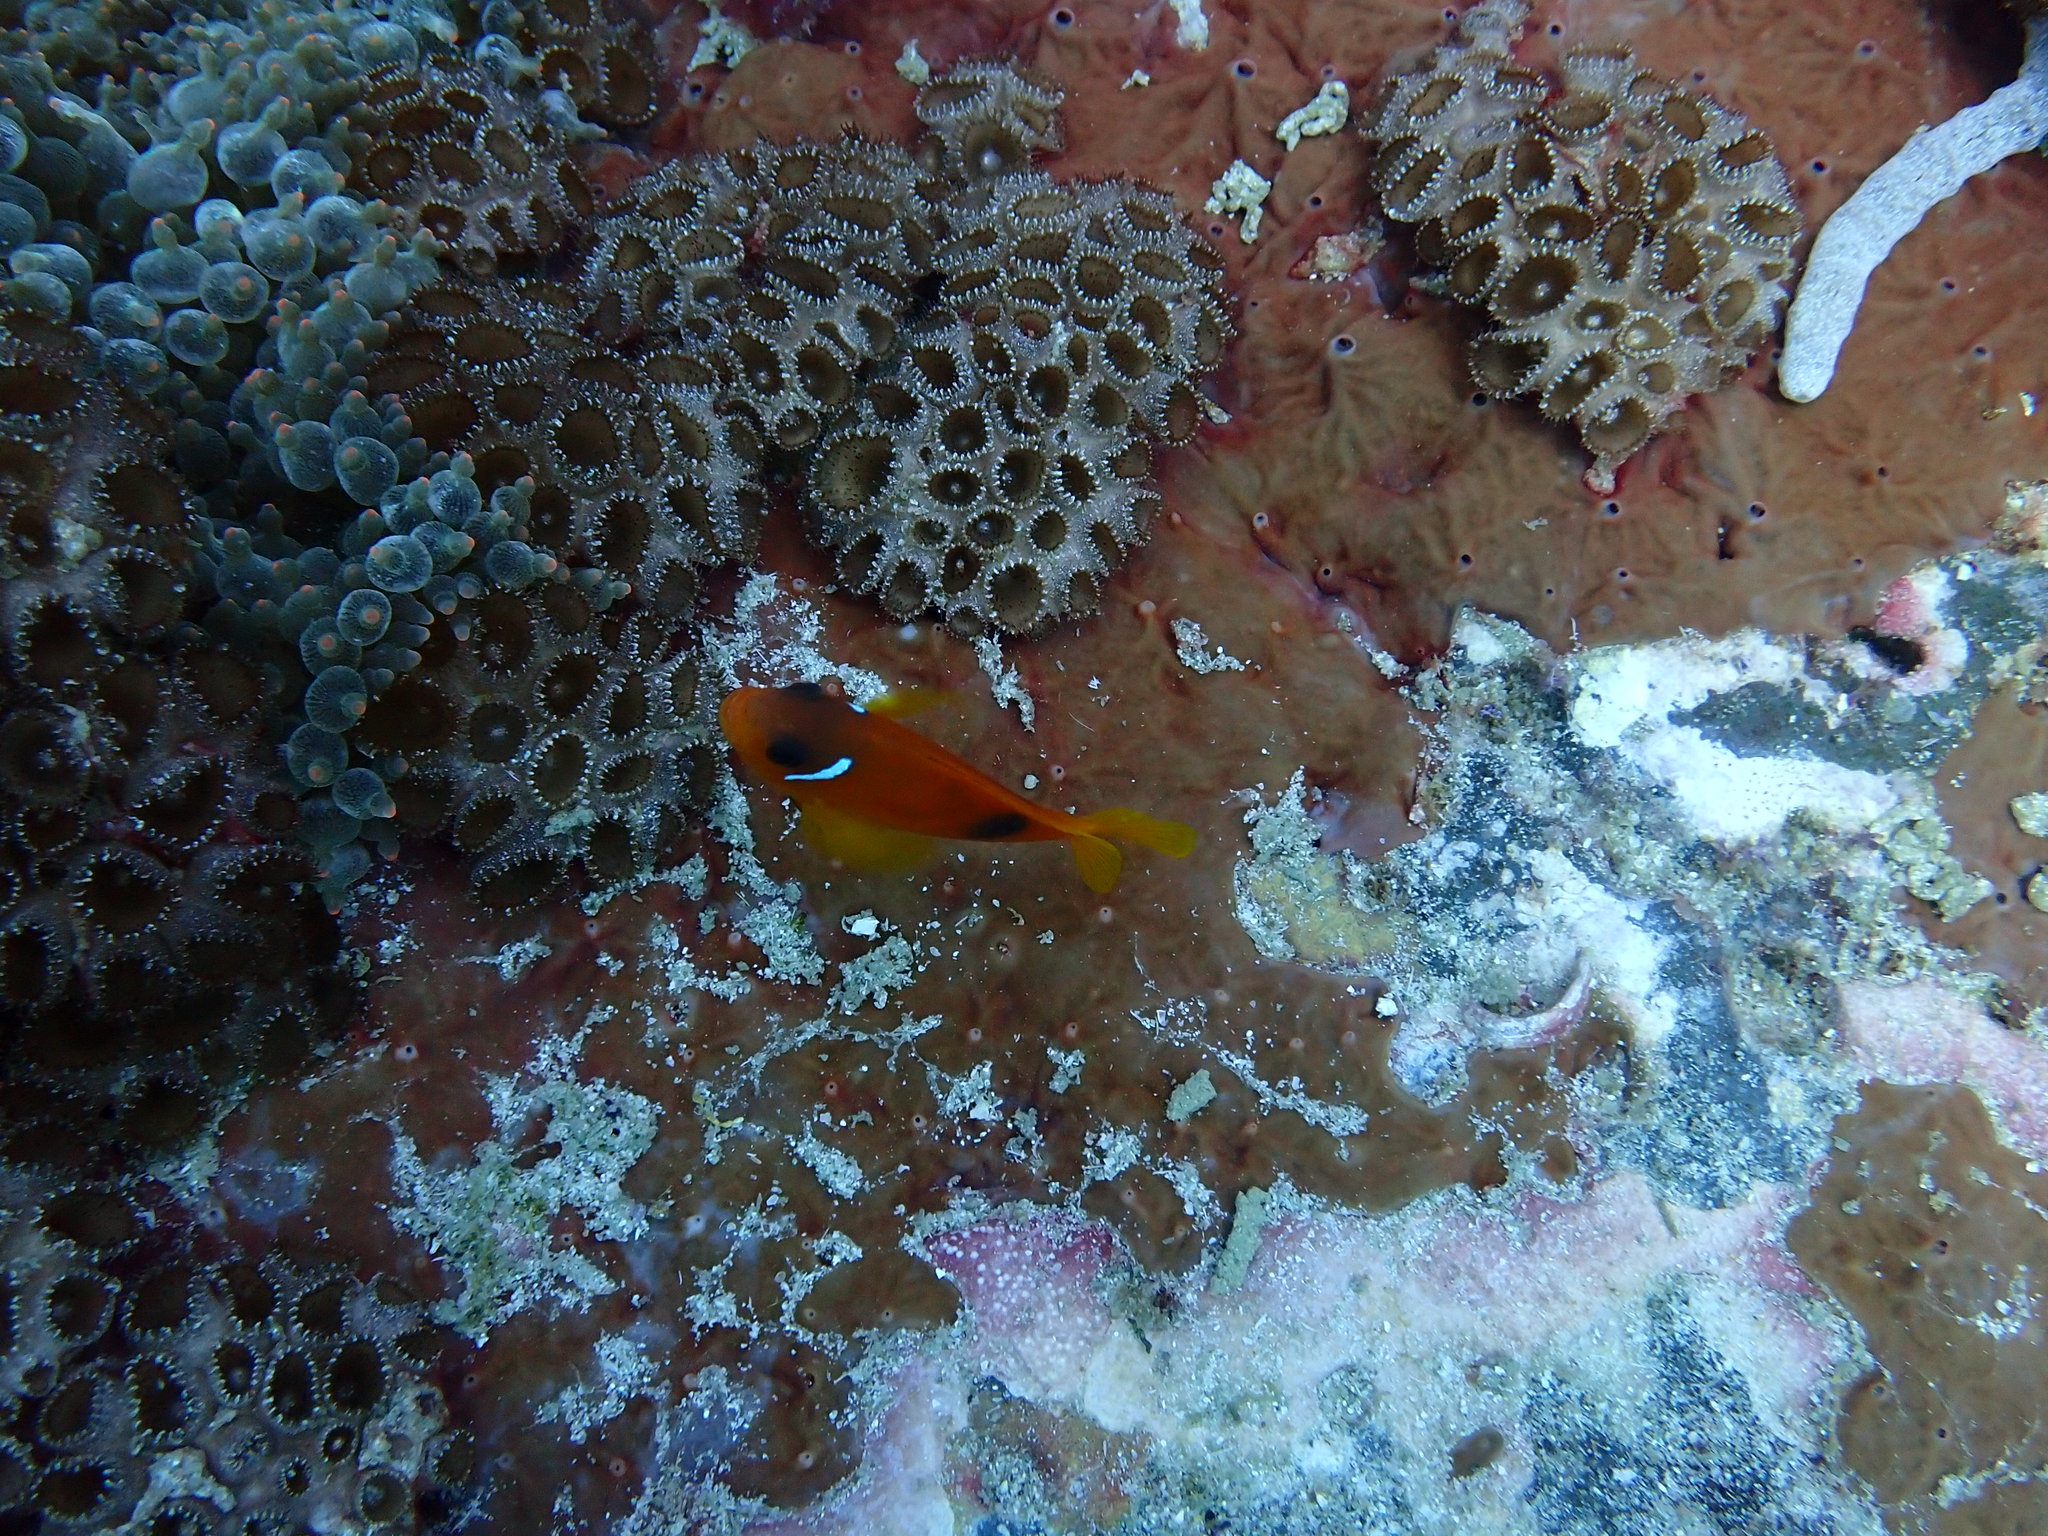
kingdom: Animalia
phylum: Cnidaria
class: Anthozoa
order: Zoantharia
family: Sphenopidae
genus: Palythoa
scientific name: Palythoa tuberculosa
